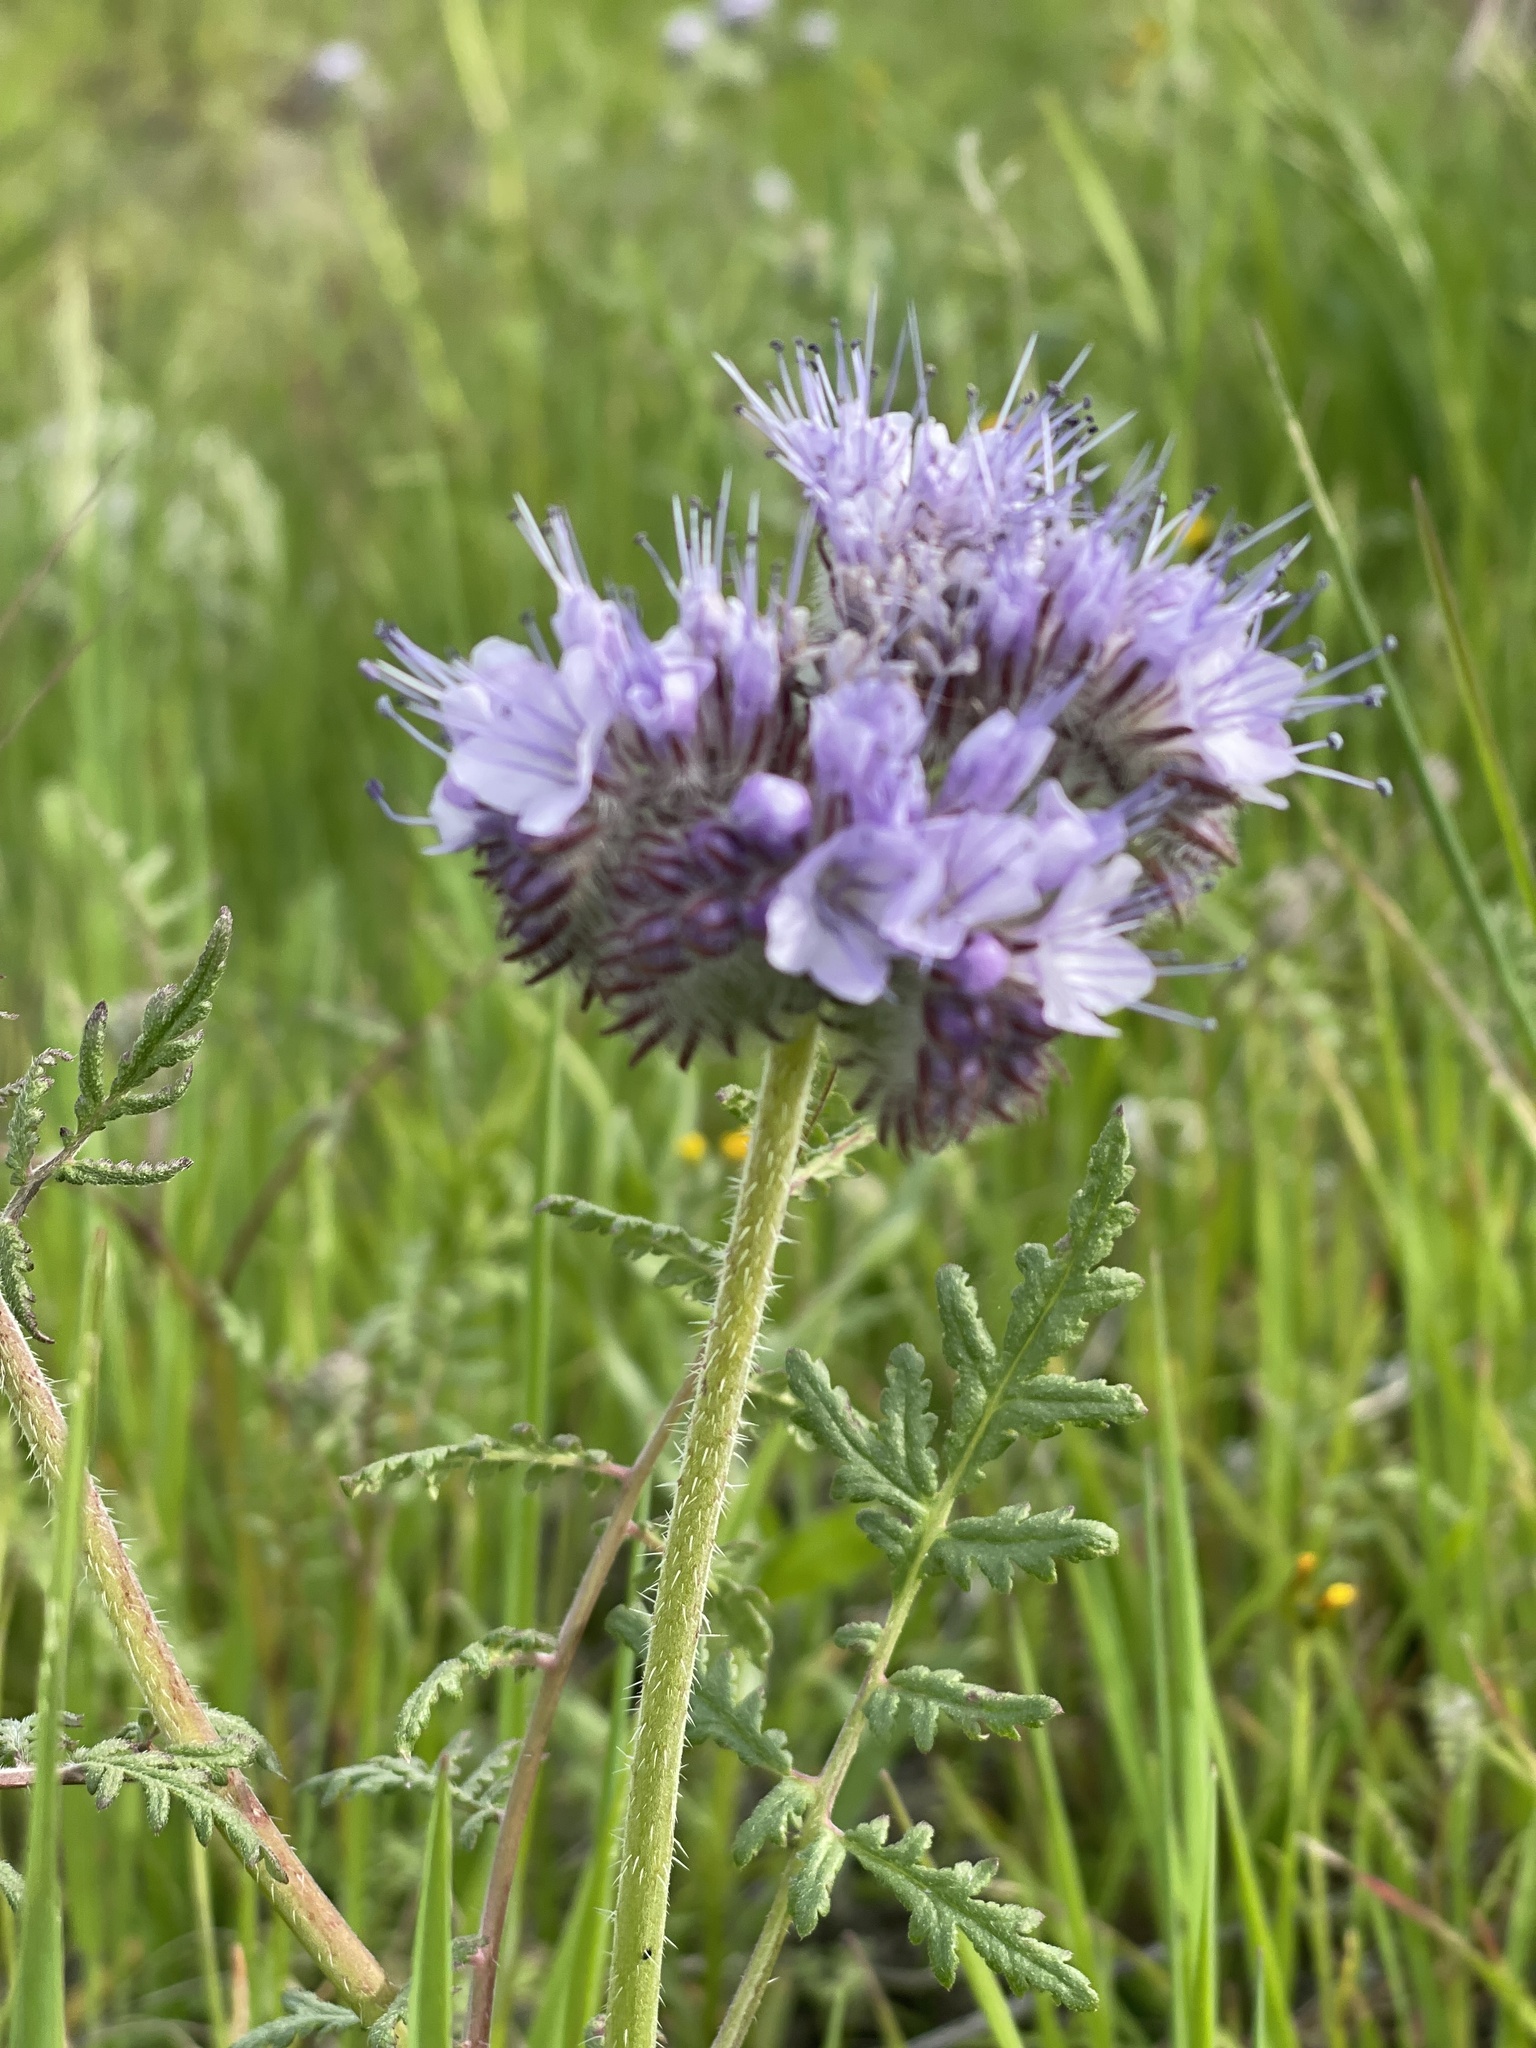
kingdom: Plantae
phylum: Tracheophyta
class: Magnoliopsida
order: Boraginales
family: Hydrophyllaceae
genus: Phacelia
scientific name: Phacelia tanacetifolia
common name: Phacelia
